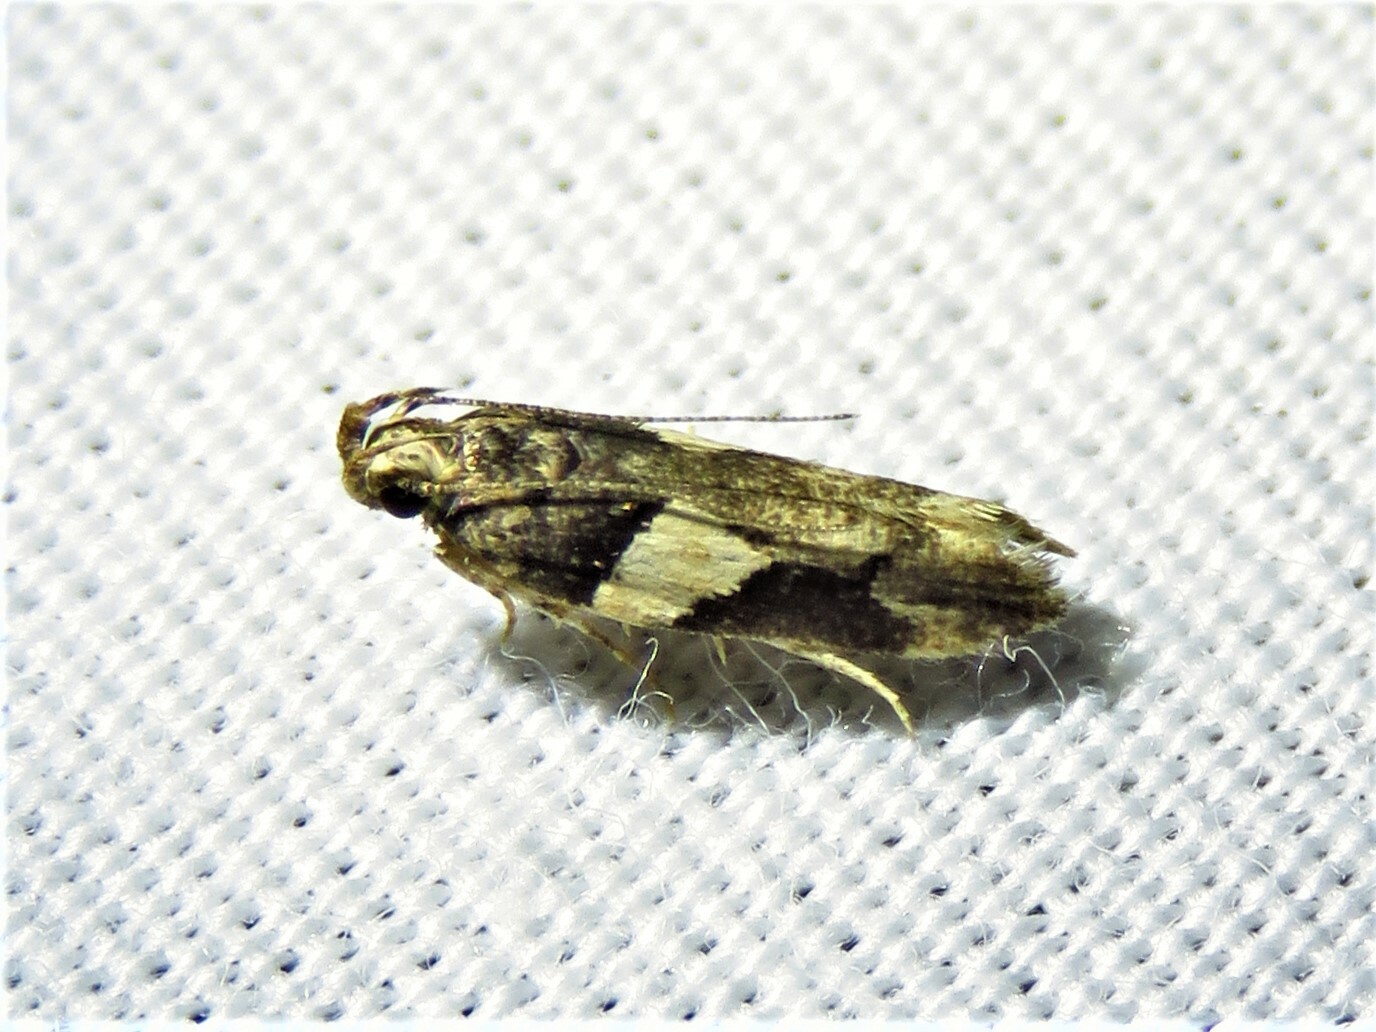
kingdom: Animalia
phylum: Arthropoda
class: Insecta
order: Lepidoptera
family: Gelechiidae
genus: Friseria
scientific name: Friseria acaciella
